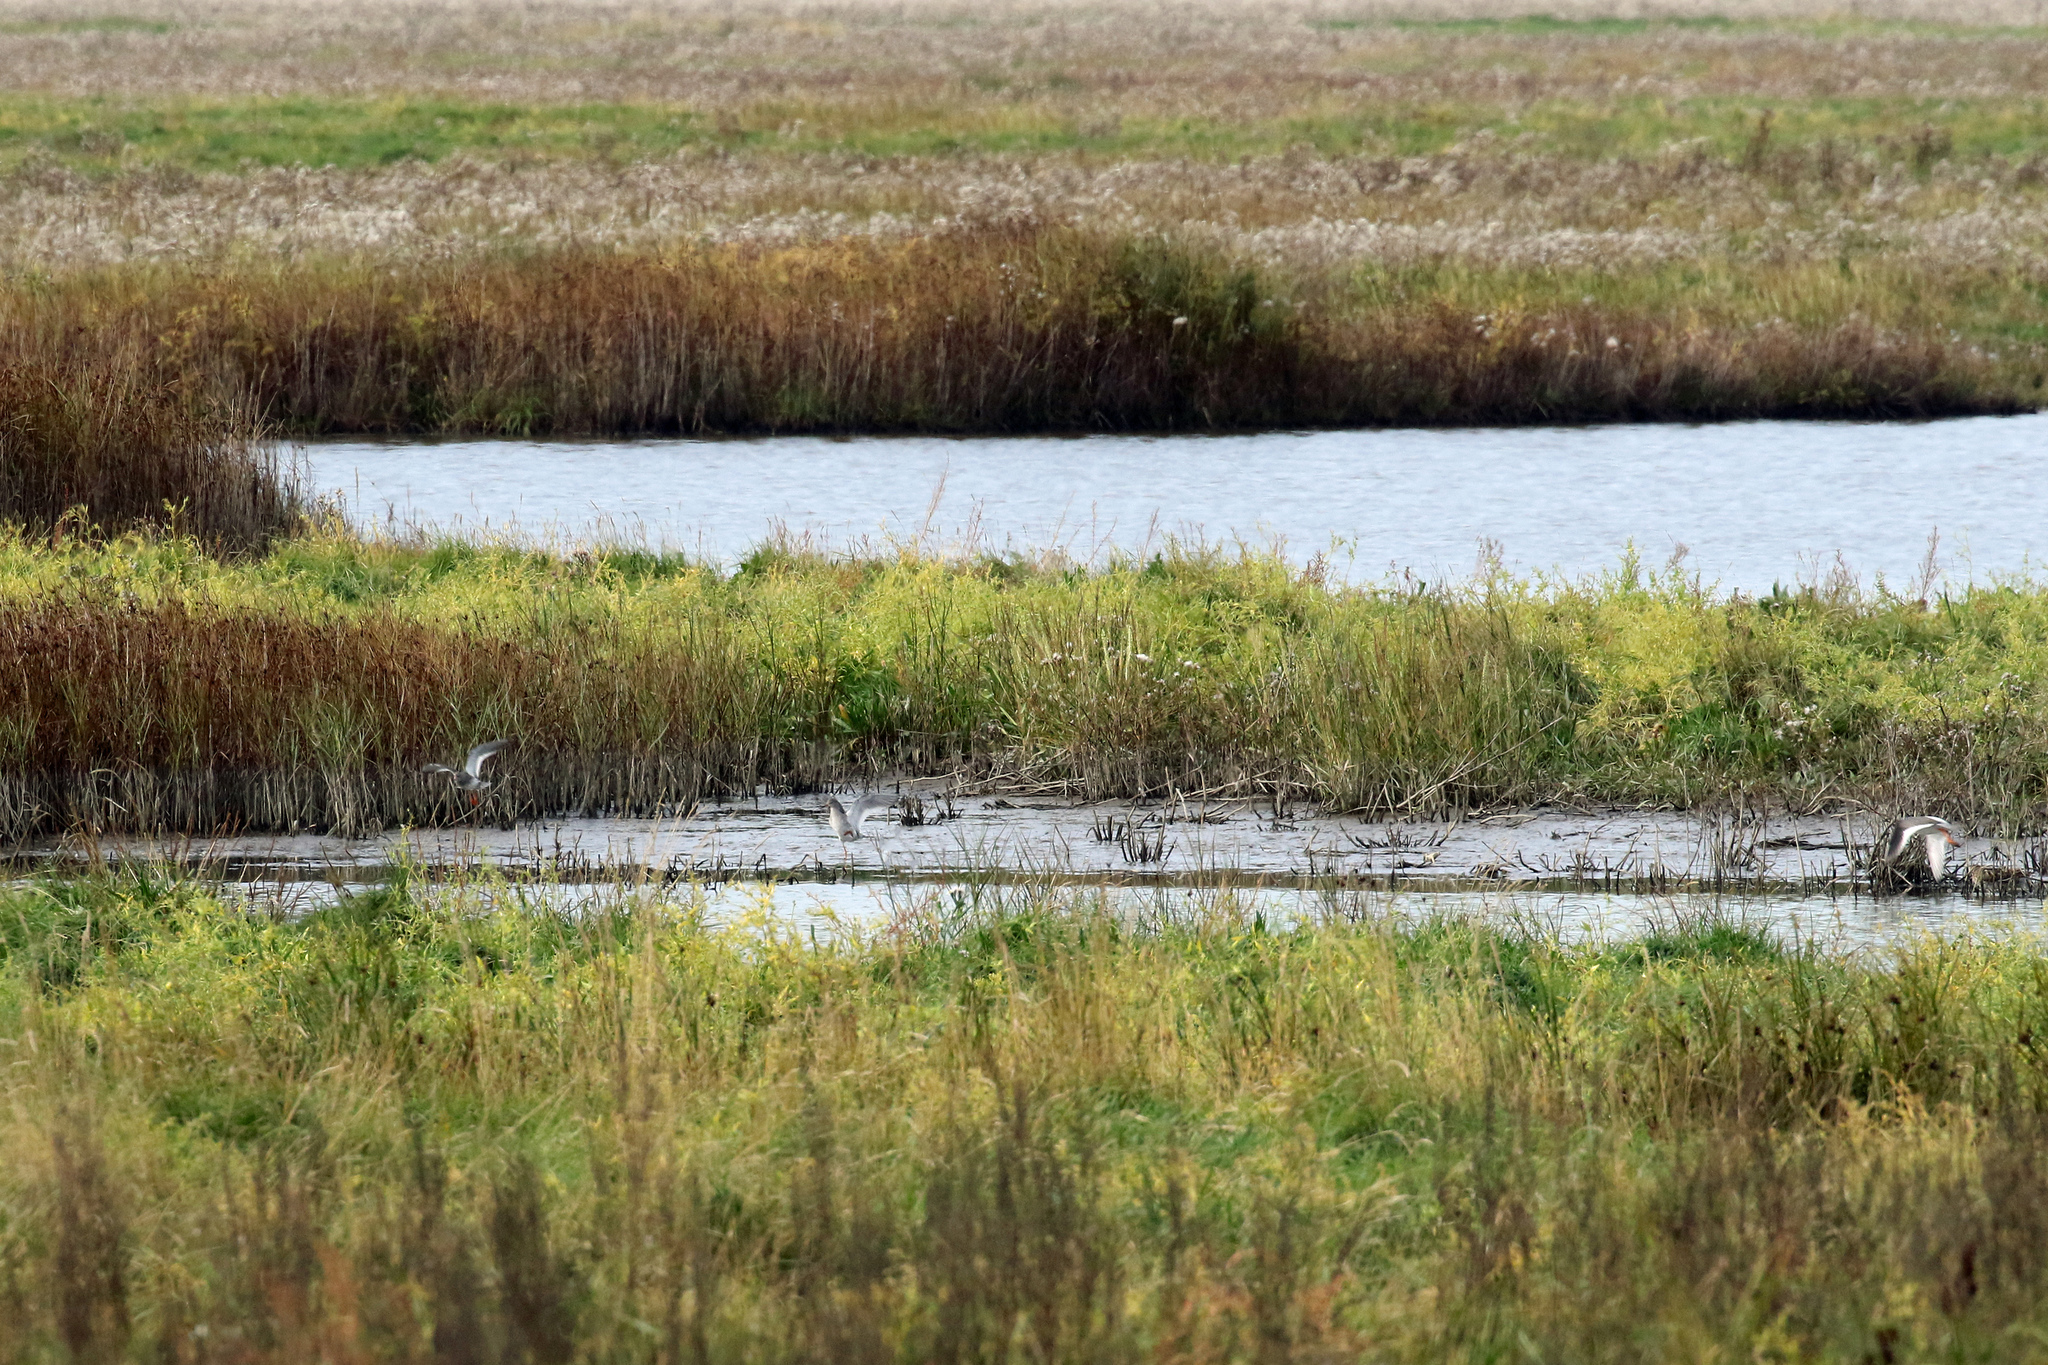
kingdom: Animalia
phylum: Chordata
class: Aves
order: Charadriiformes
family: Scolopacidae
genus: Tringa
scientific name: Tringa totanus
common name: Common redshank
